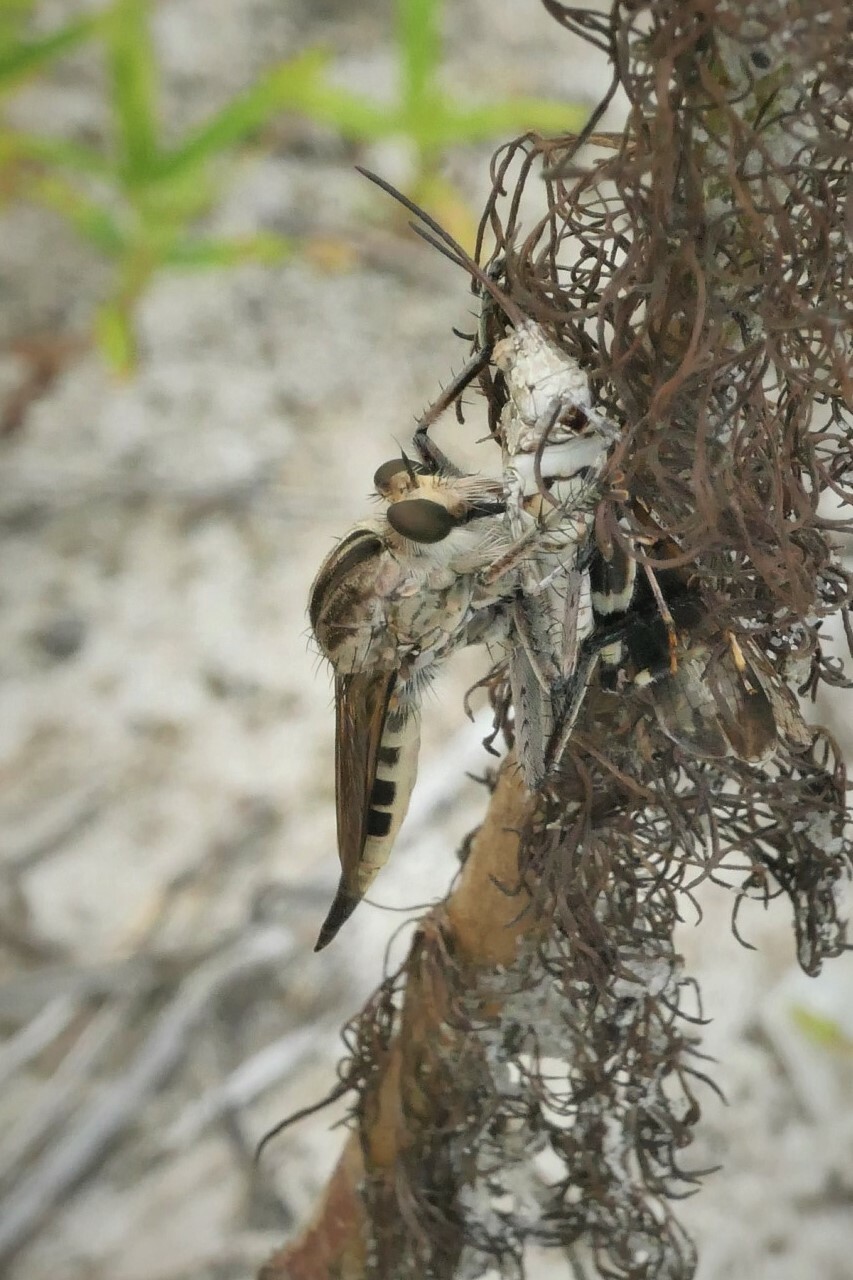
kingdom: Animalia
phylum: Arthropoda
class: Insecta
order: Diptera
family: Asilidae
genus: Triorla
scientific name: Triorla interrupta
